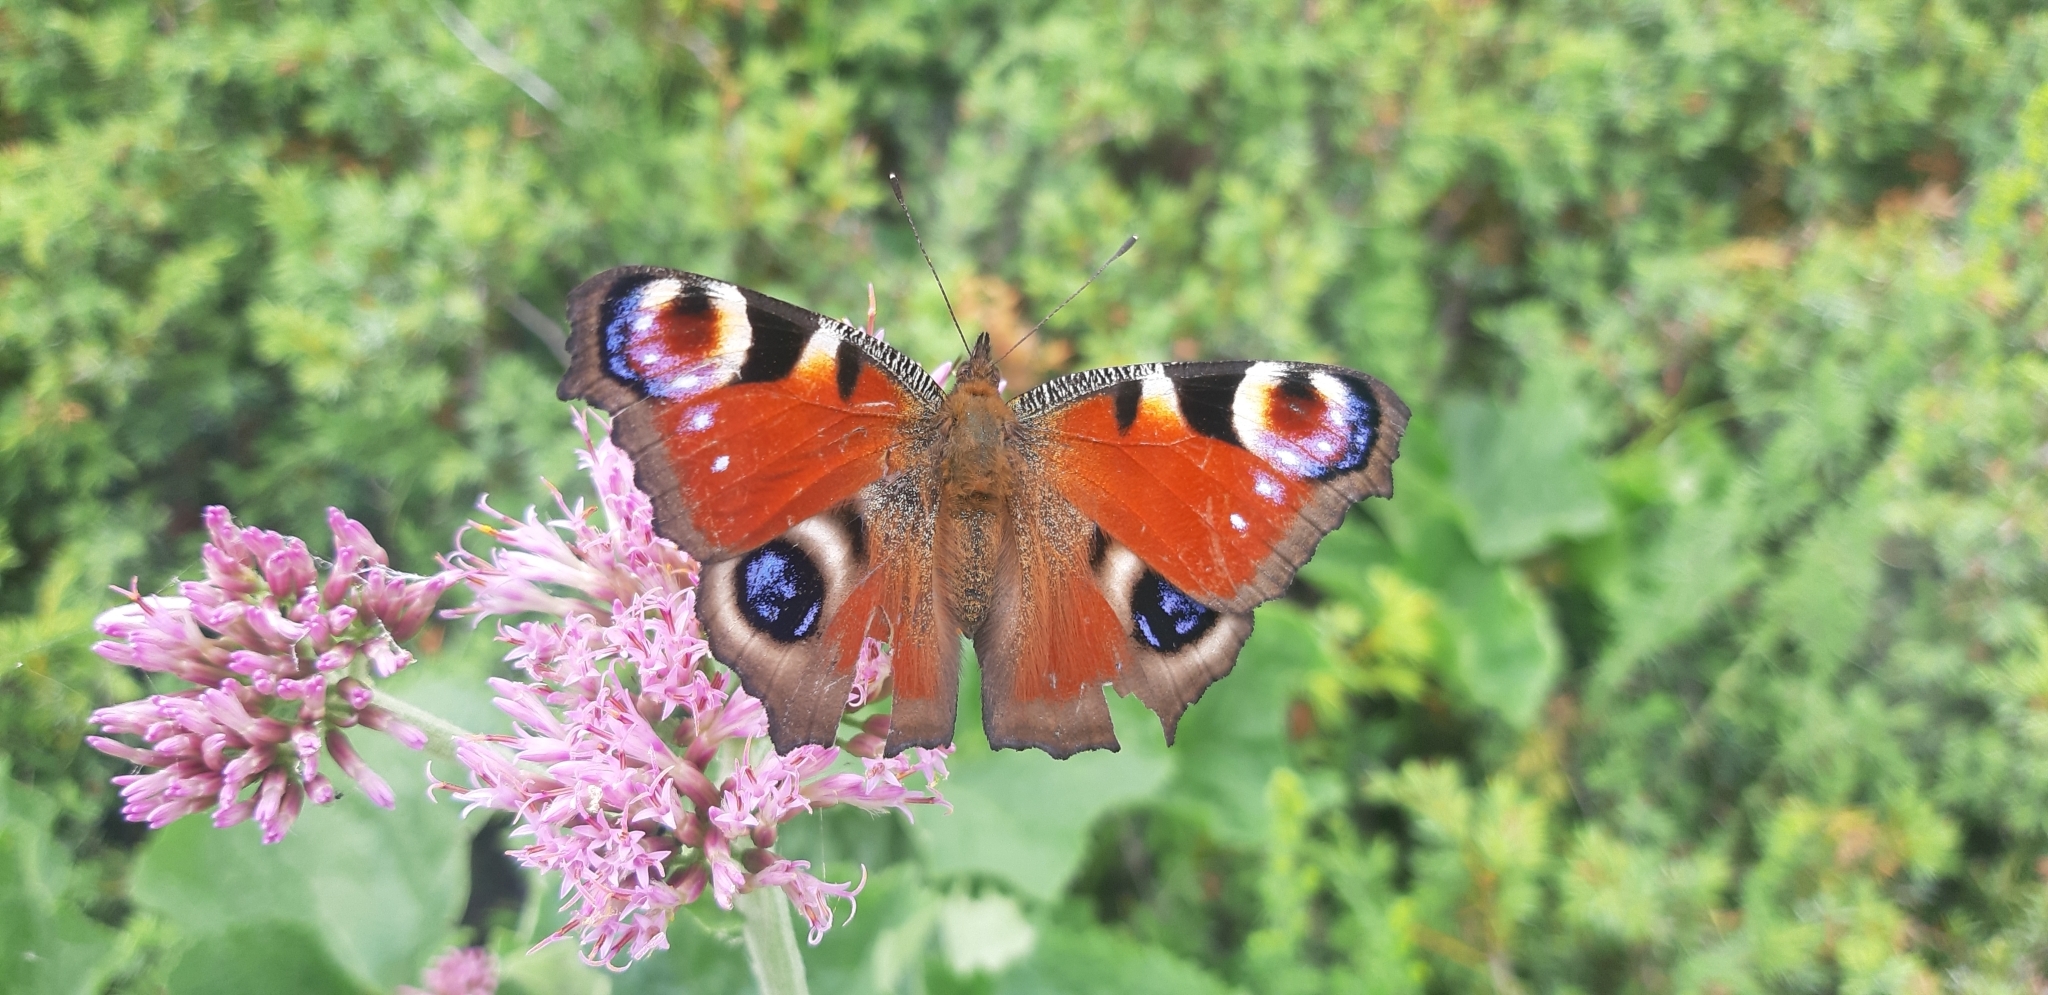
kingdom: Animalia
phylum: Arthropoda
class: Insecta
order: Lepidoptera
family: Nymphalidae
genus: Aglais
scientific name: Aglais io
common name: Peacock
